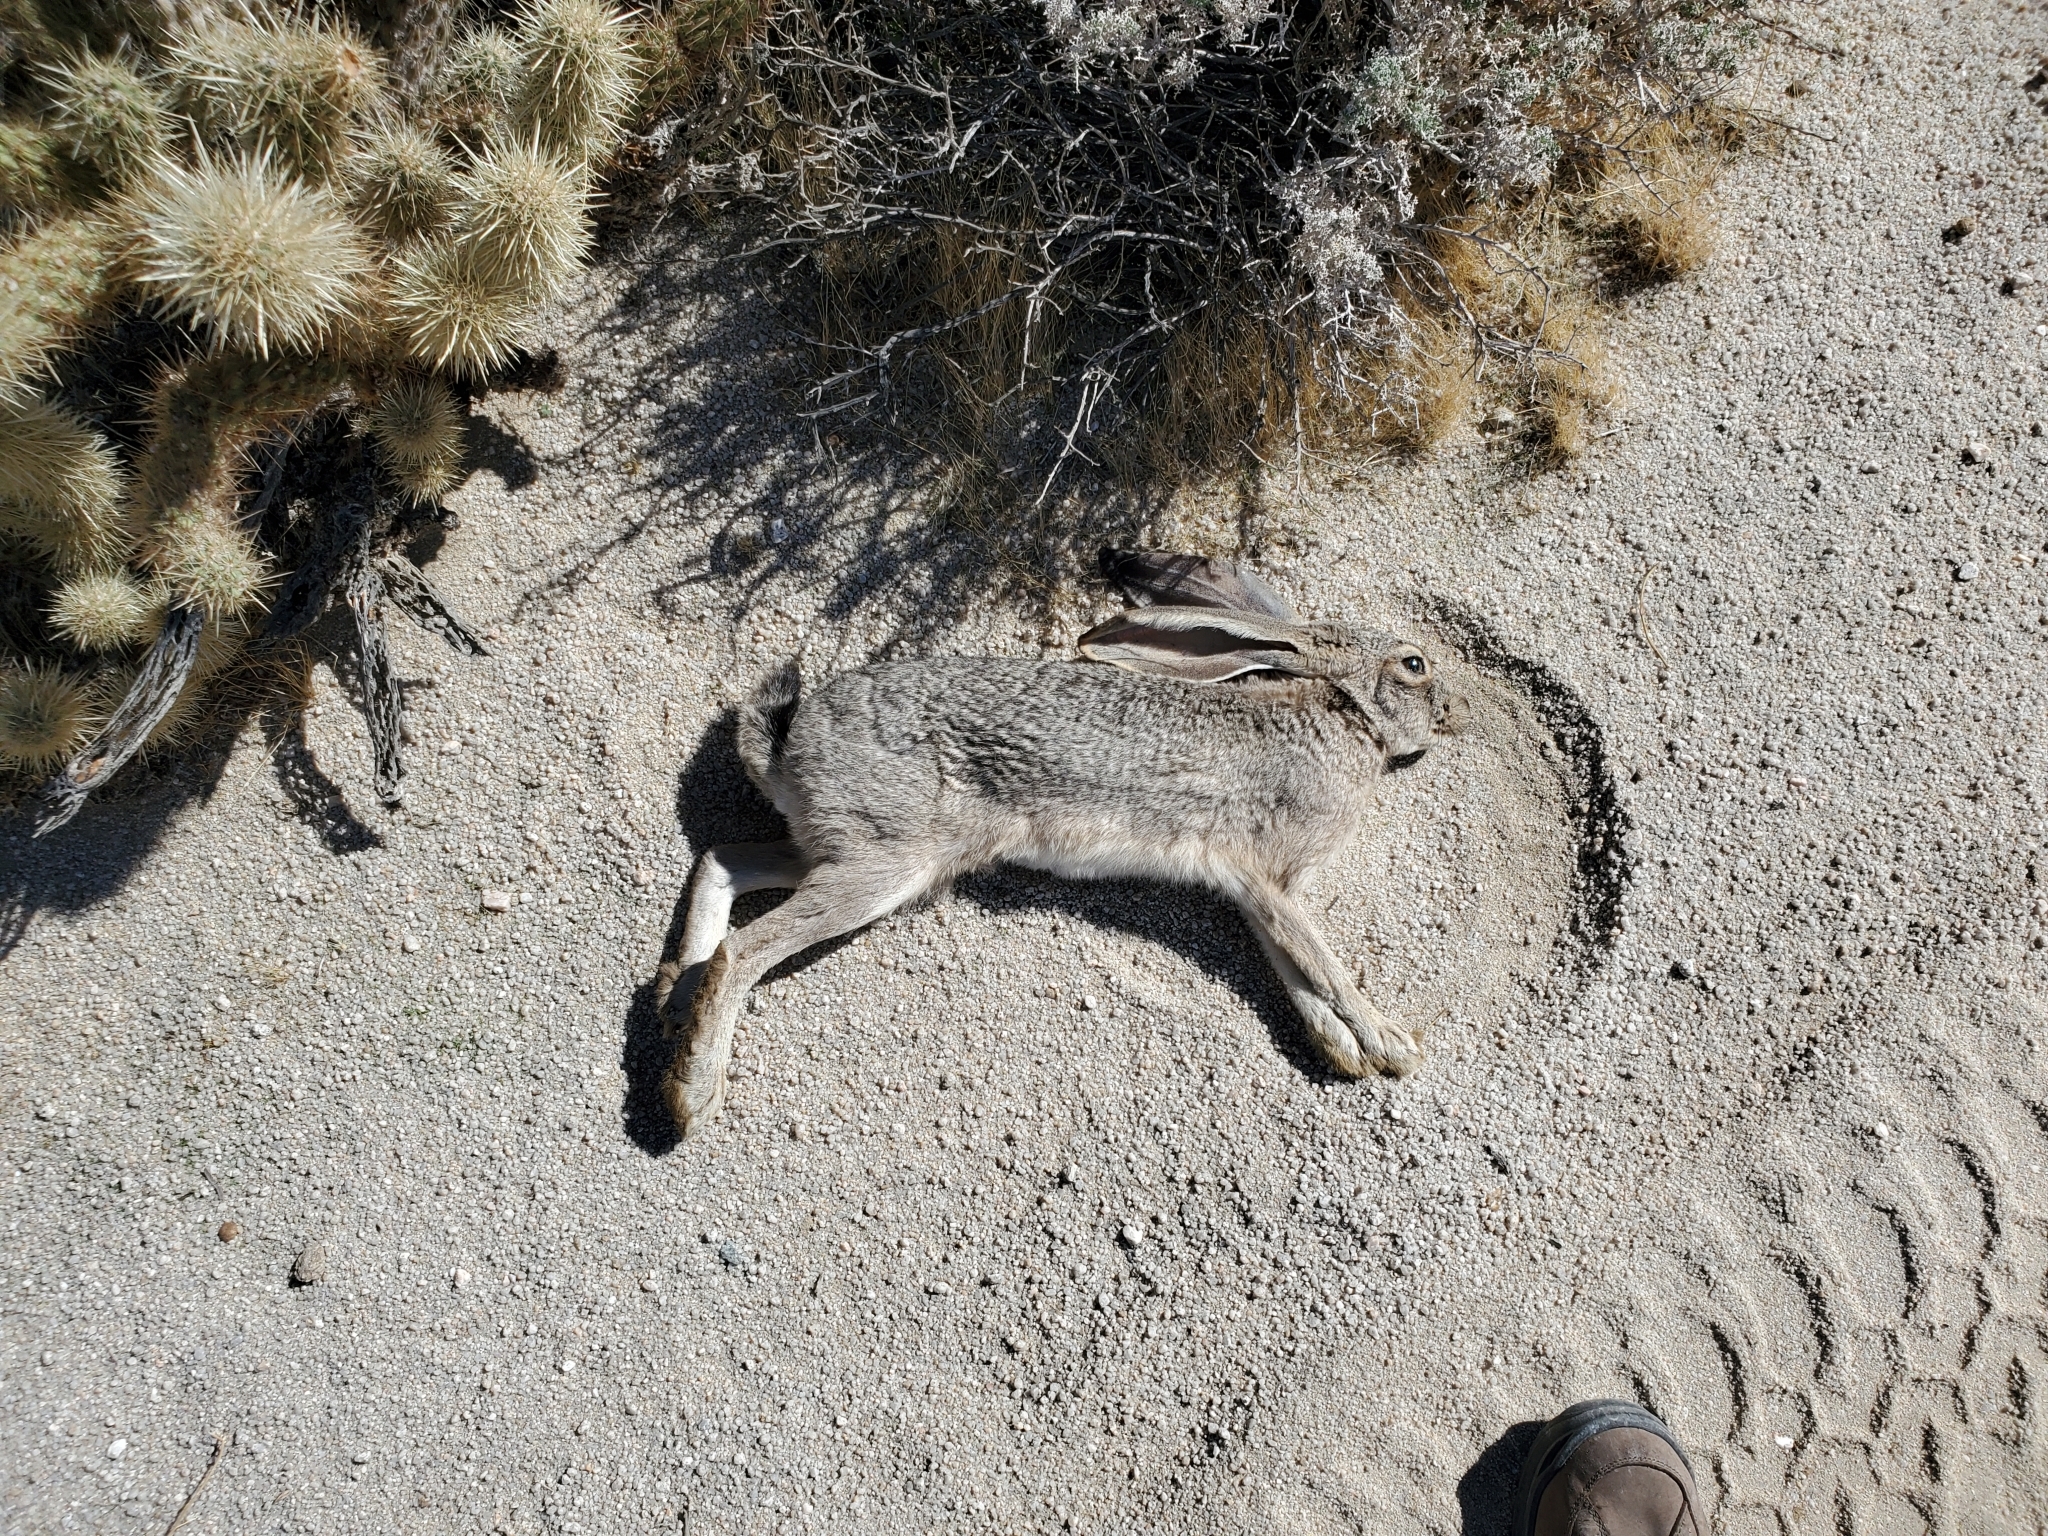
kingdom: Animalia
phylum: Chordata
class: Mammalia
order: Lagomorpha
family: Leporidae
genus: Lepus
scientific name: Lepus californicus
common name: Black-tailed jackrabbit
